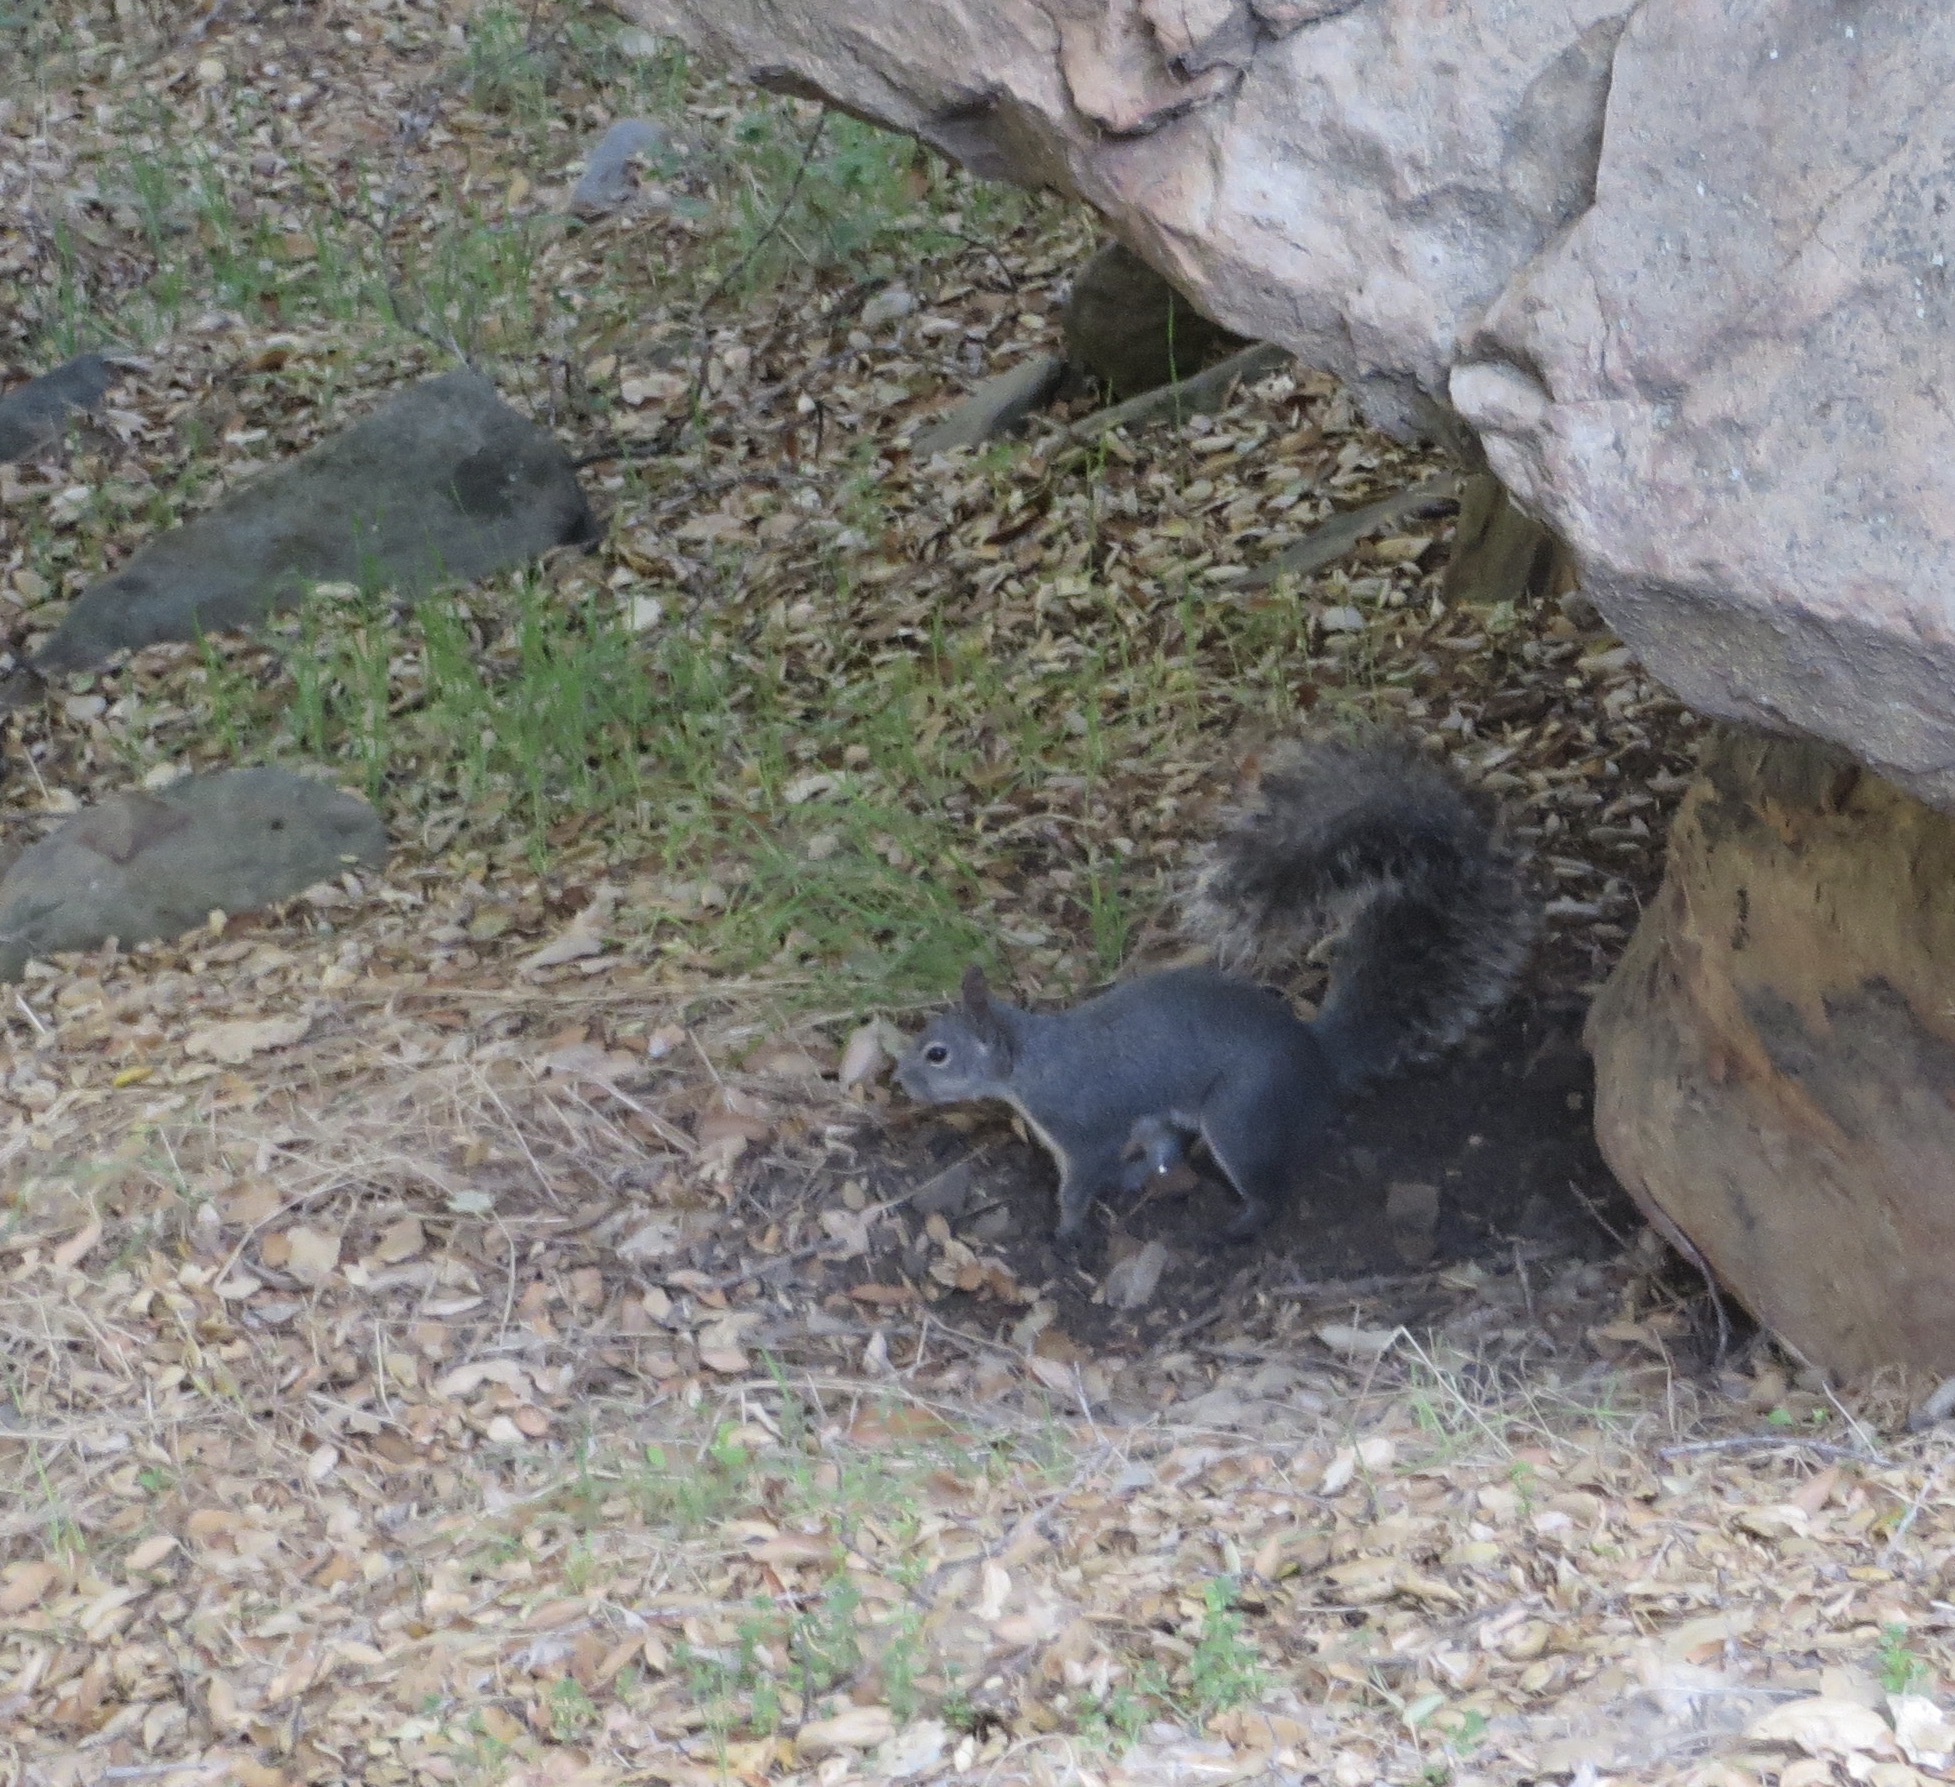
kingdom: Animalia
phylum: Chordata
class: Mammalia
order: Rodentia
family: Sciuridae
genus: Sciurus
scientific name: Sciurus griseus
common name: Western gray squirrel
